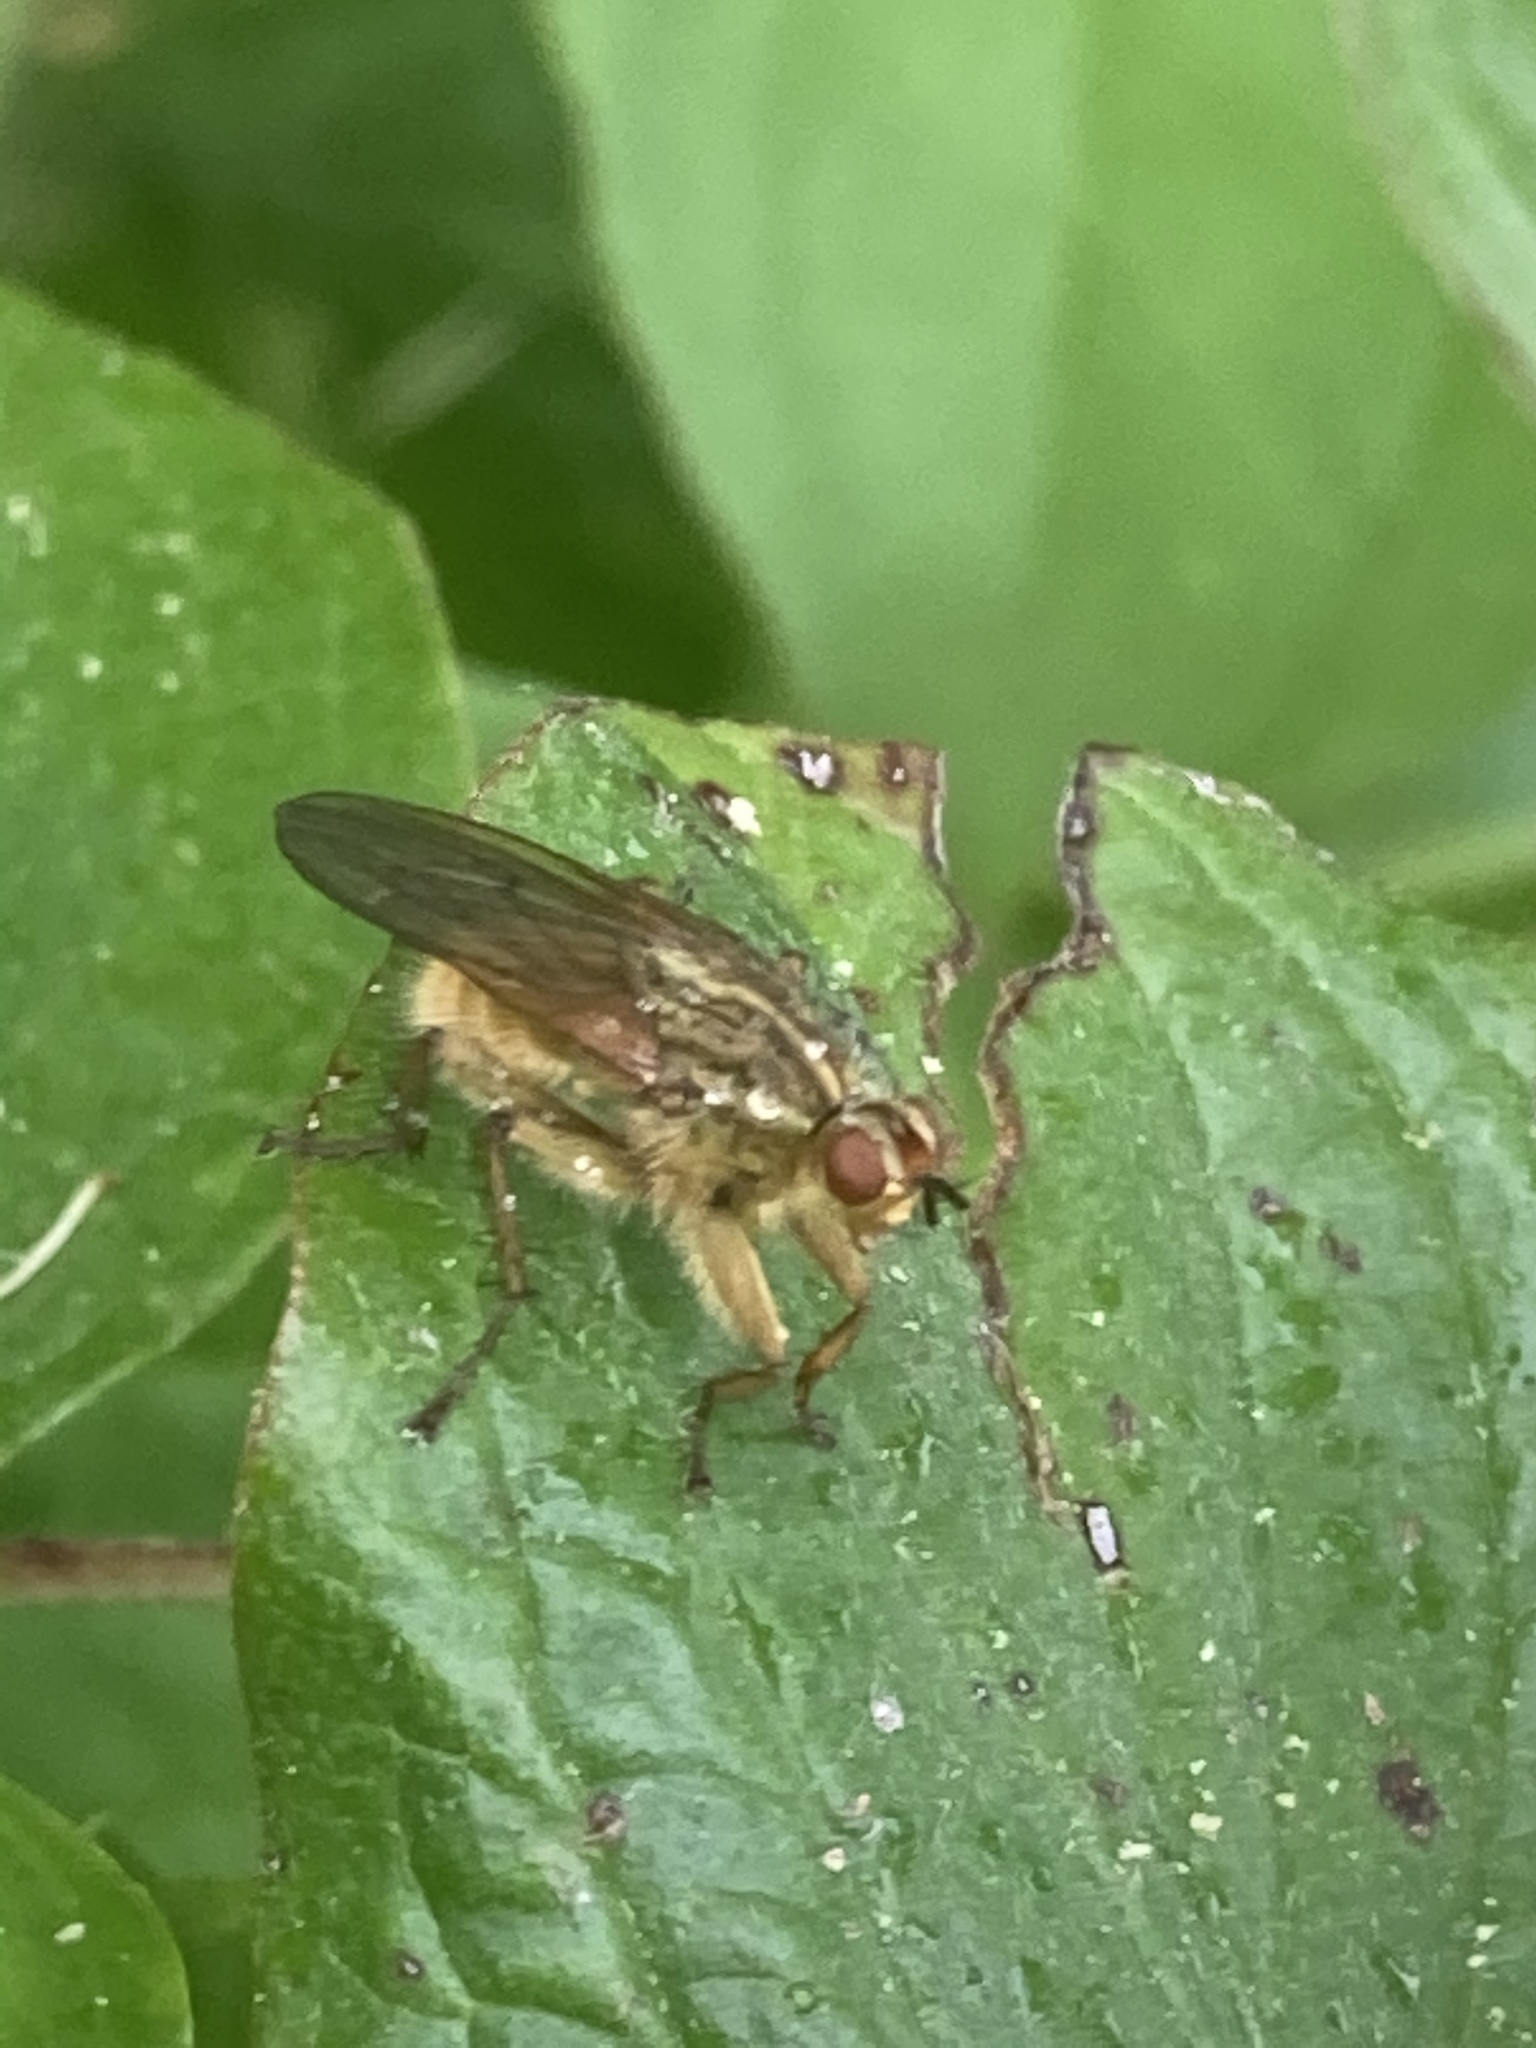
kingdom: Animalia
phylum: Arthropoda
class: Insecta
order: Diptera
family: Scathophagidae
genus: Scathophaga
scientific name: Scathophaga stercoraria
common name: Yellow dung fly
